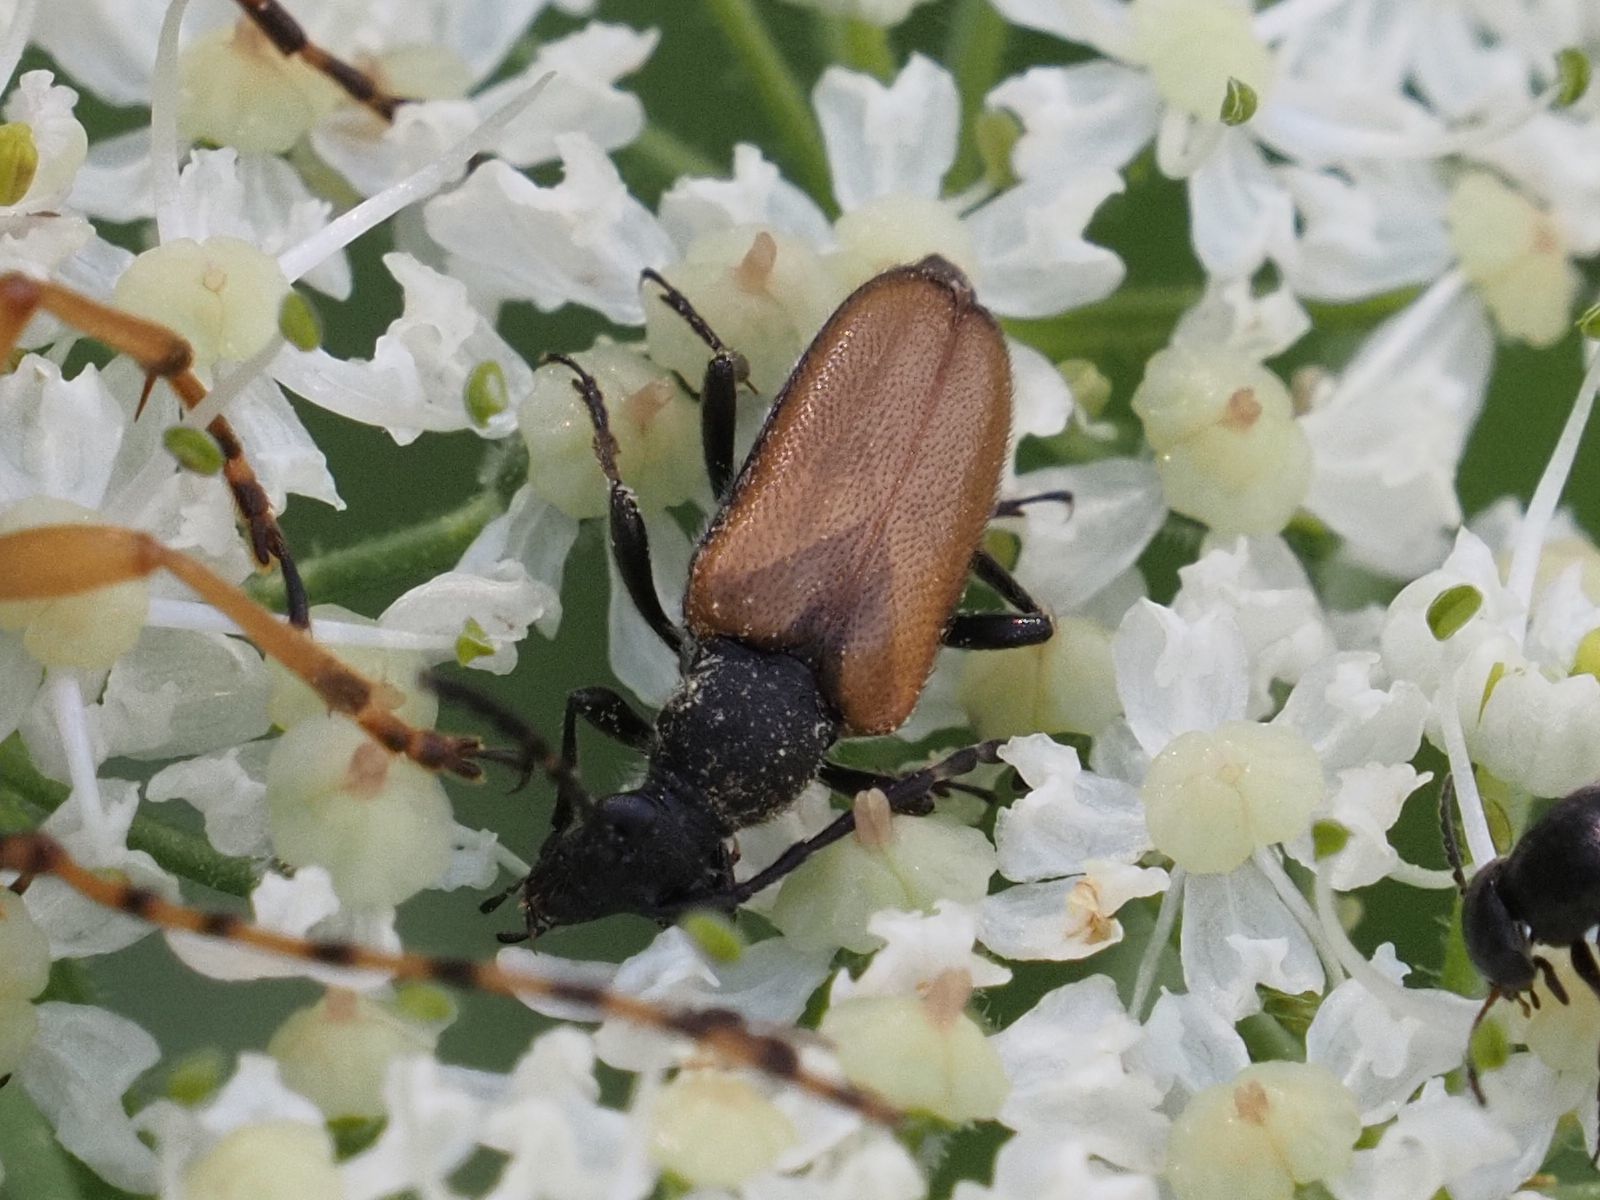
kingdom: Animalia
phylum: Arthropoda
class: Insecta
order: Coleoptera
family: Cerambycidae
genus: Paracorymbia
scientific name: Paracorymbia maculicornis
